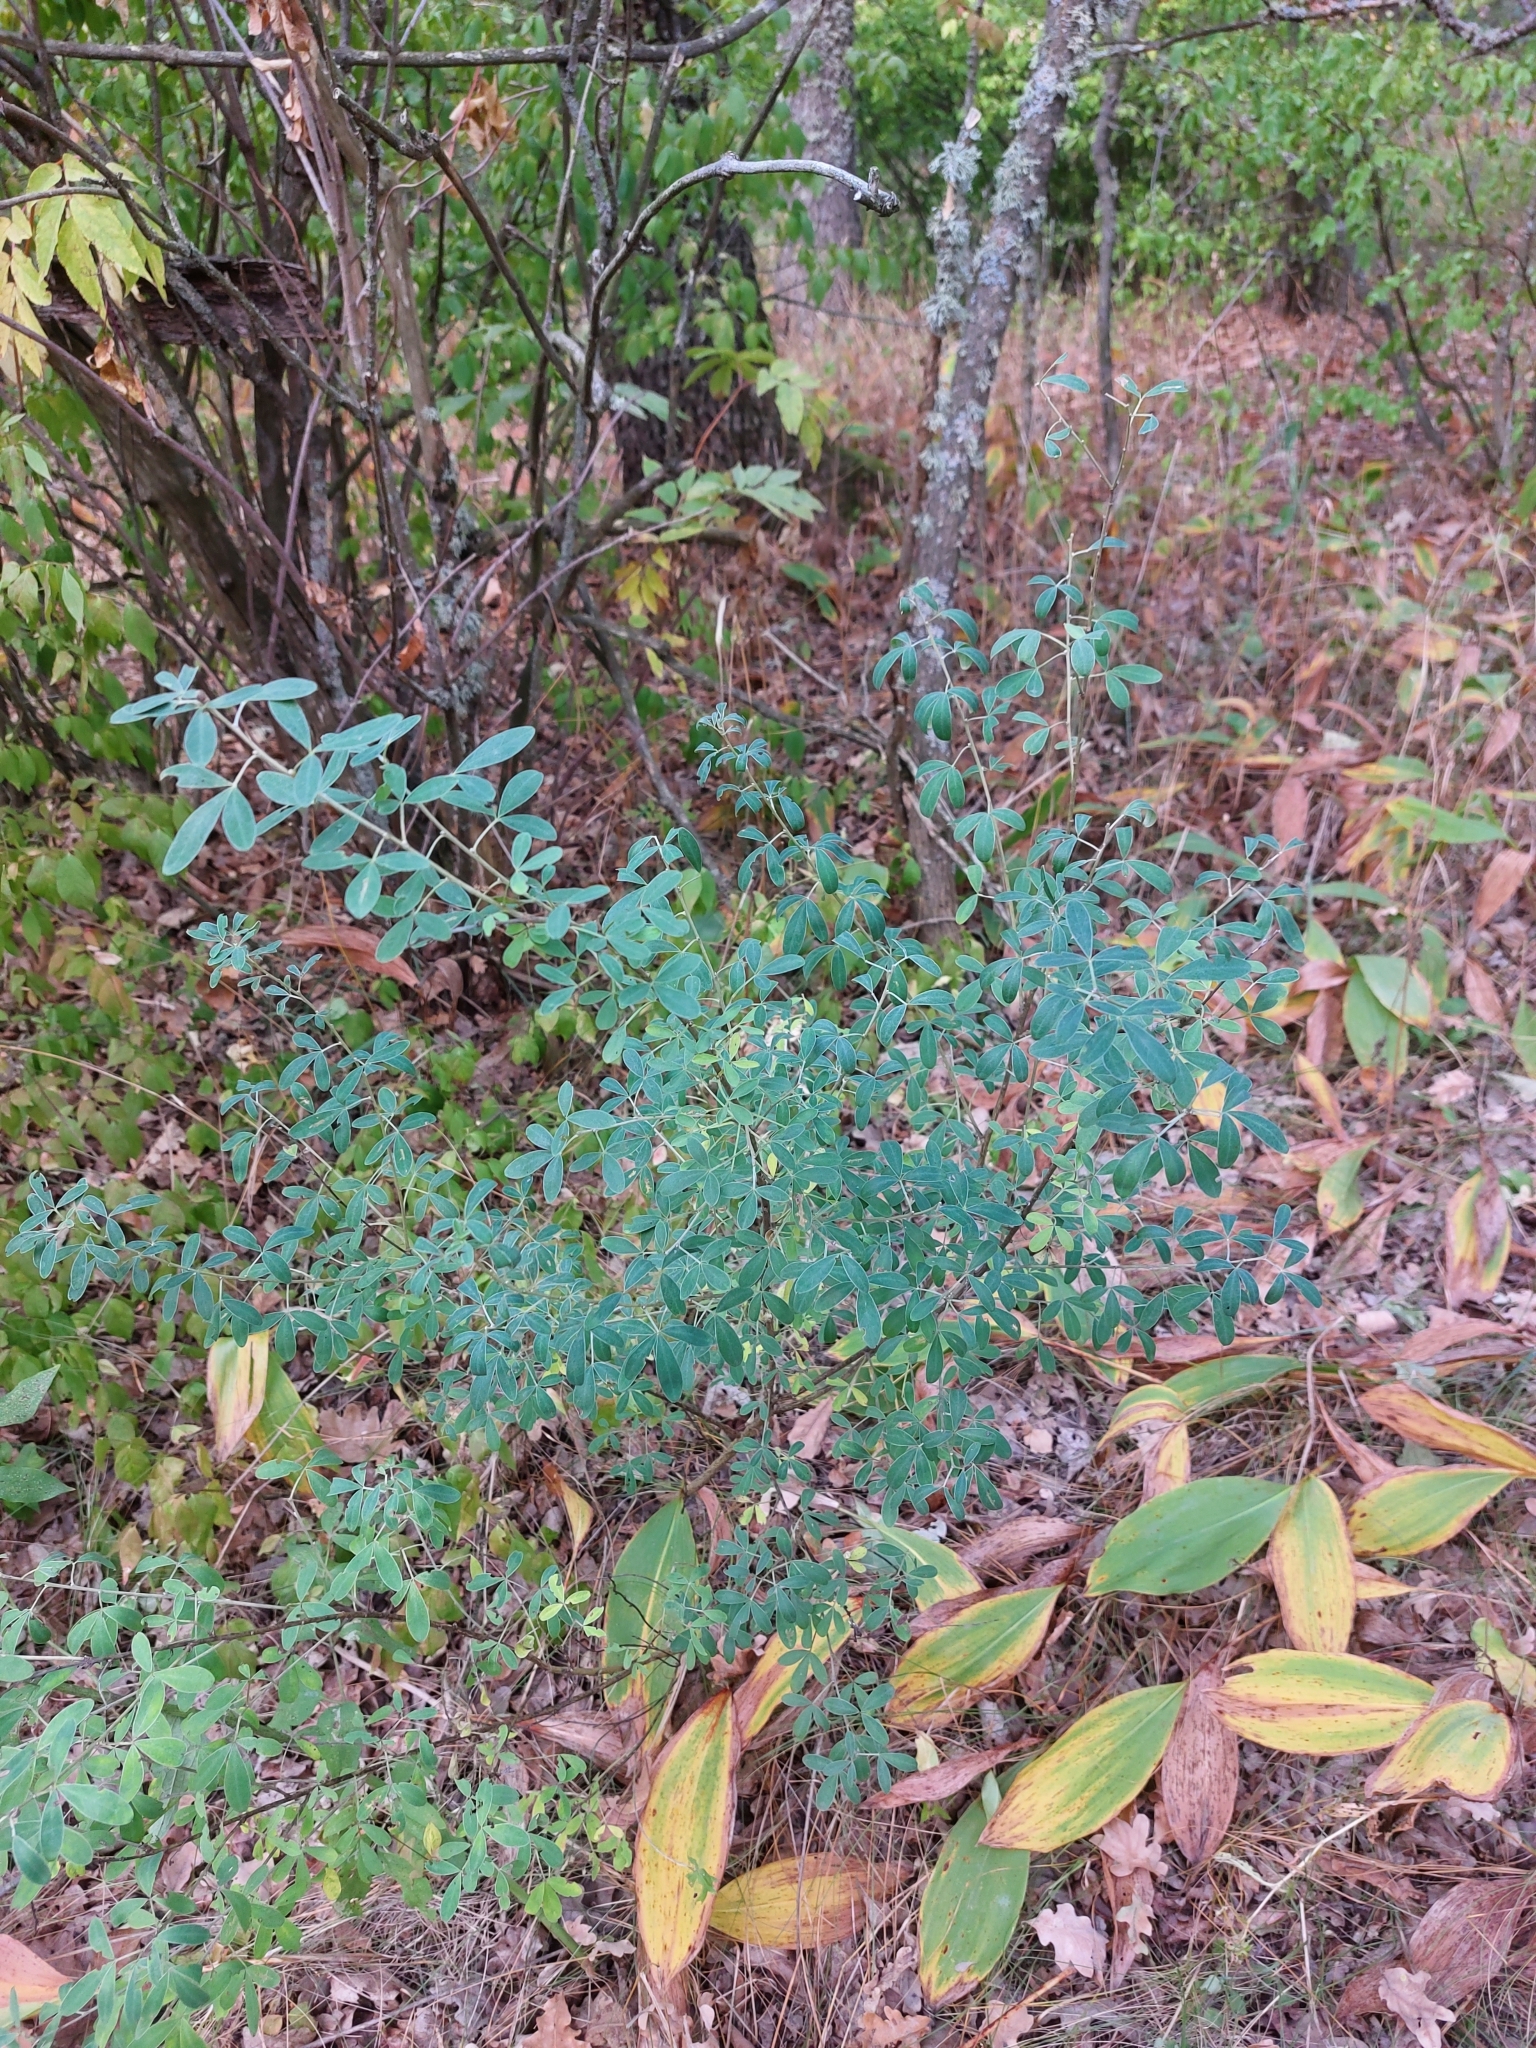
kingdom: Plantae
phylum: Tracheophyta
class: Magnoliopsida
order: Fabales
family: Fabaceae
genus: Chamaecytisus
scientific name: Chamaecytisus ruthenicus
